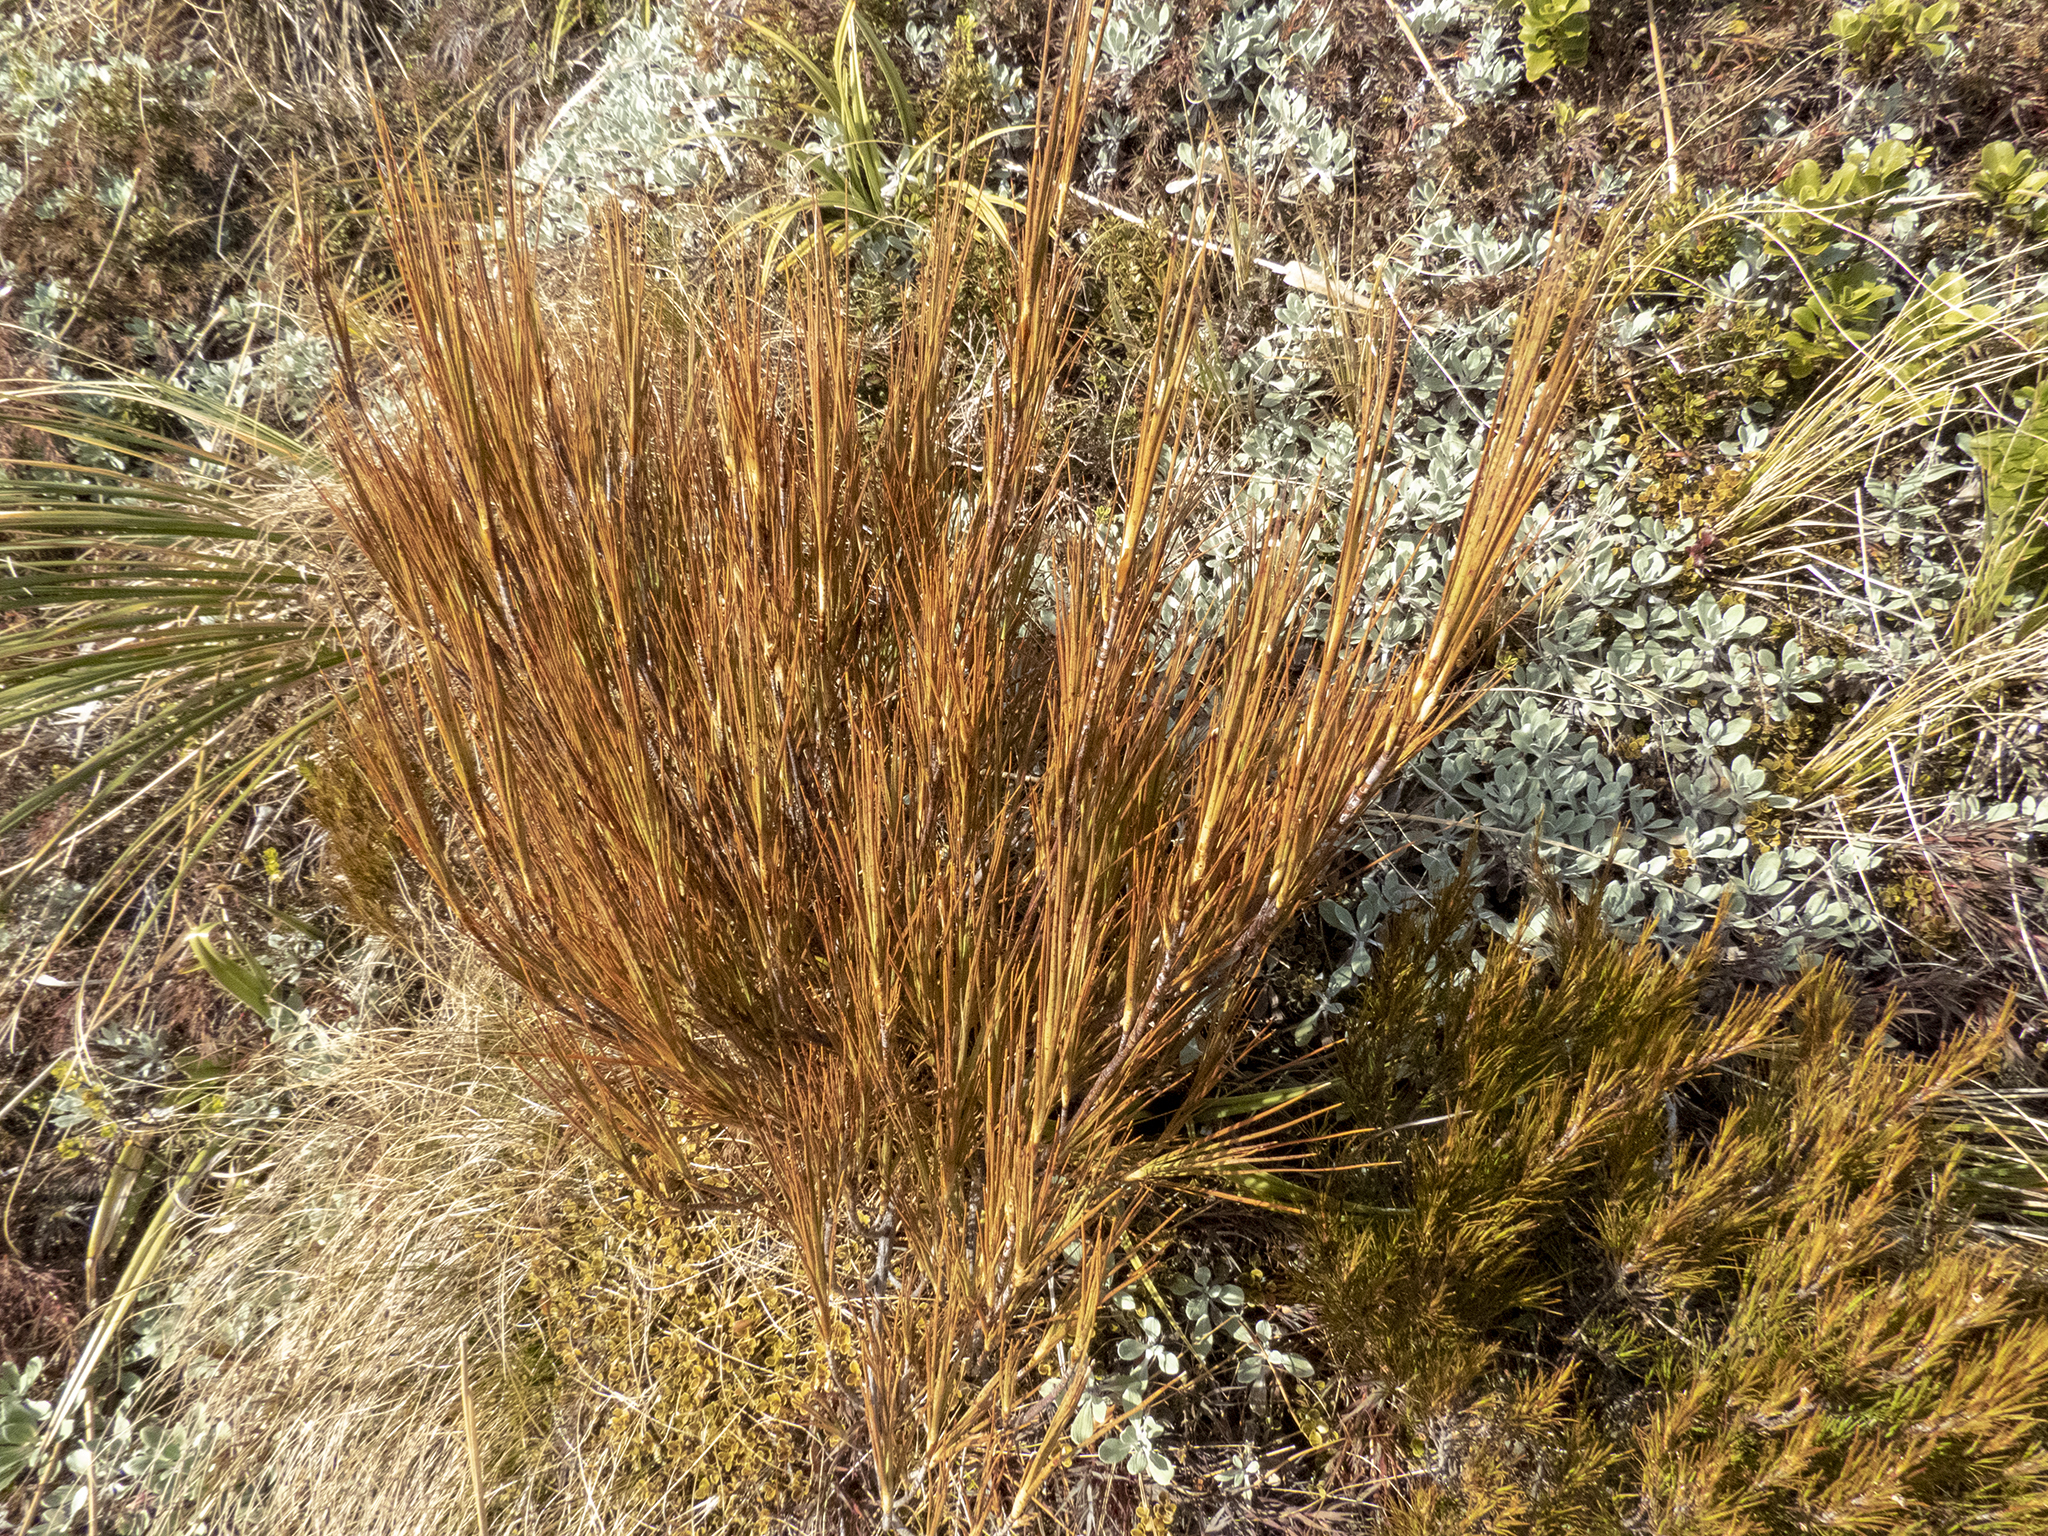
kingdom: Plantae
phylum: Tracheophyta
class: Magnoliopsida
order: Ericales
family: Ericaceae
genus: Dracophyllum
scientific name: Dracophyllum longifolium
